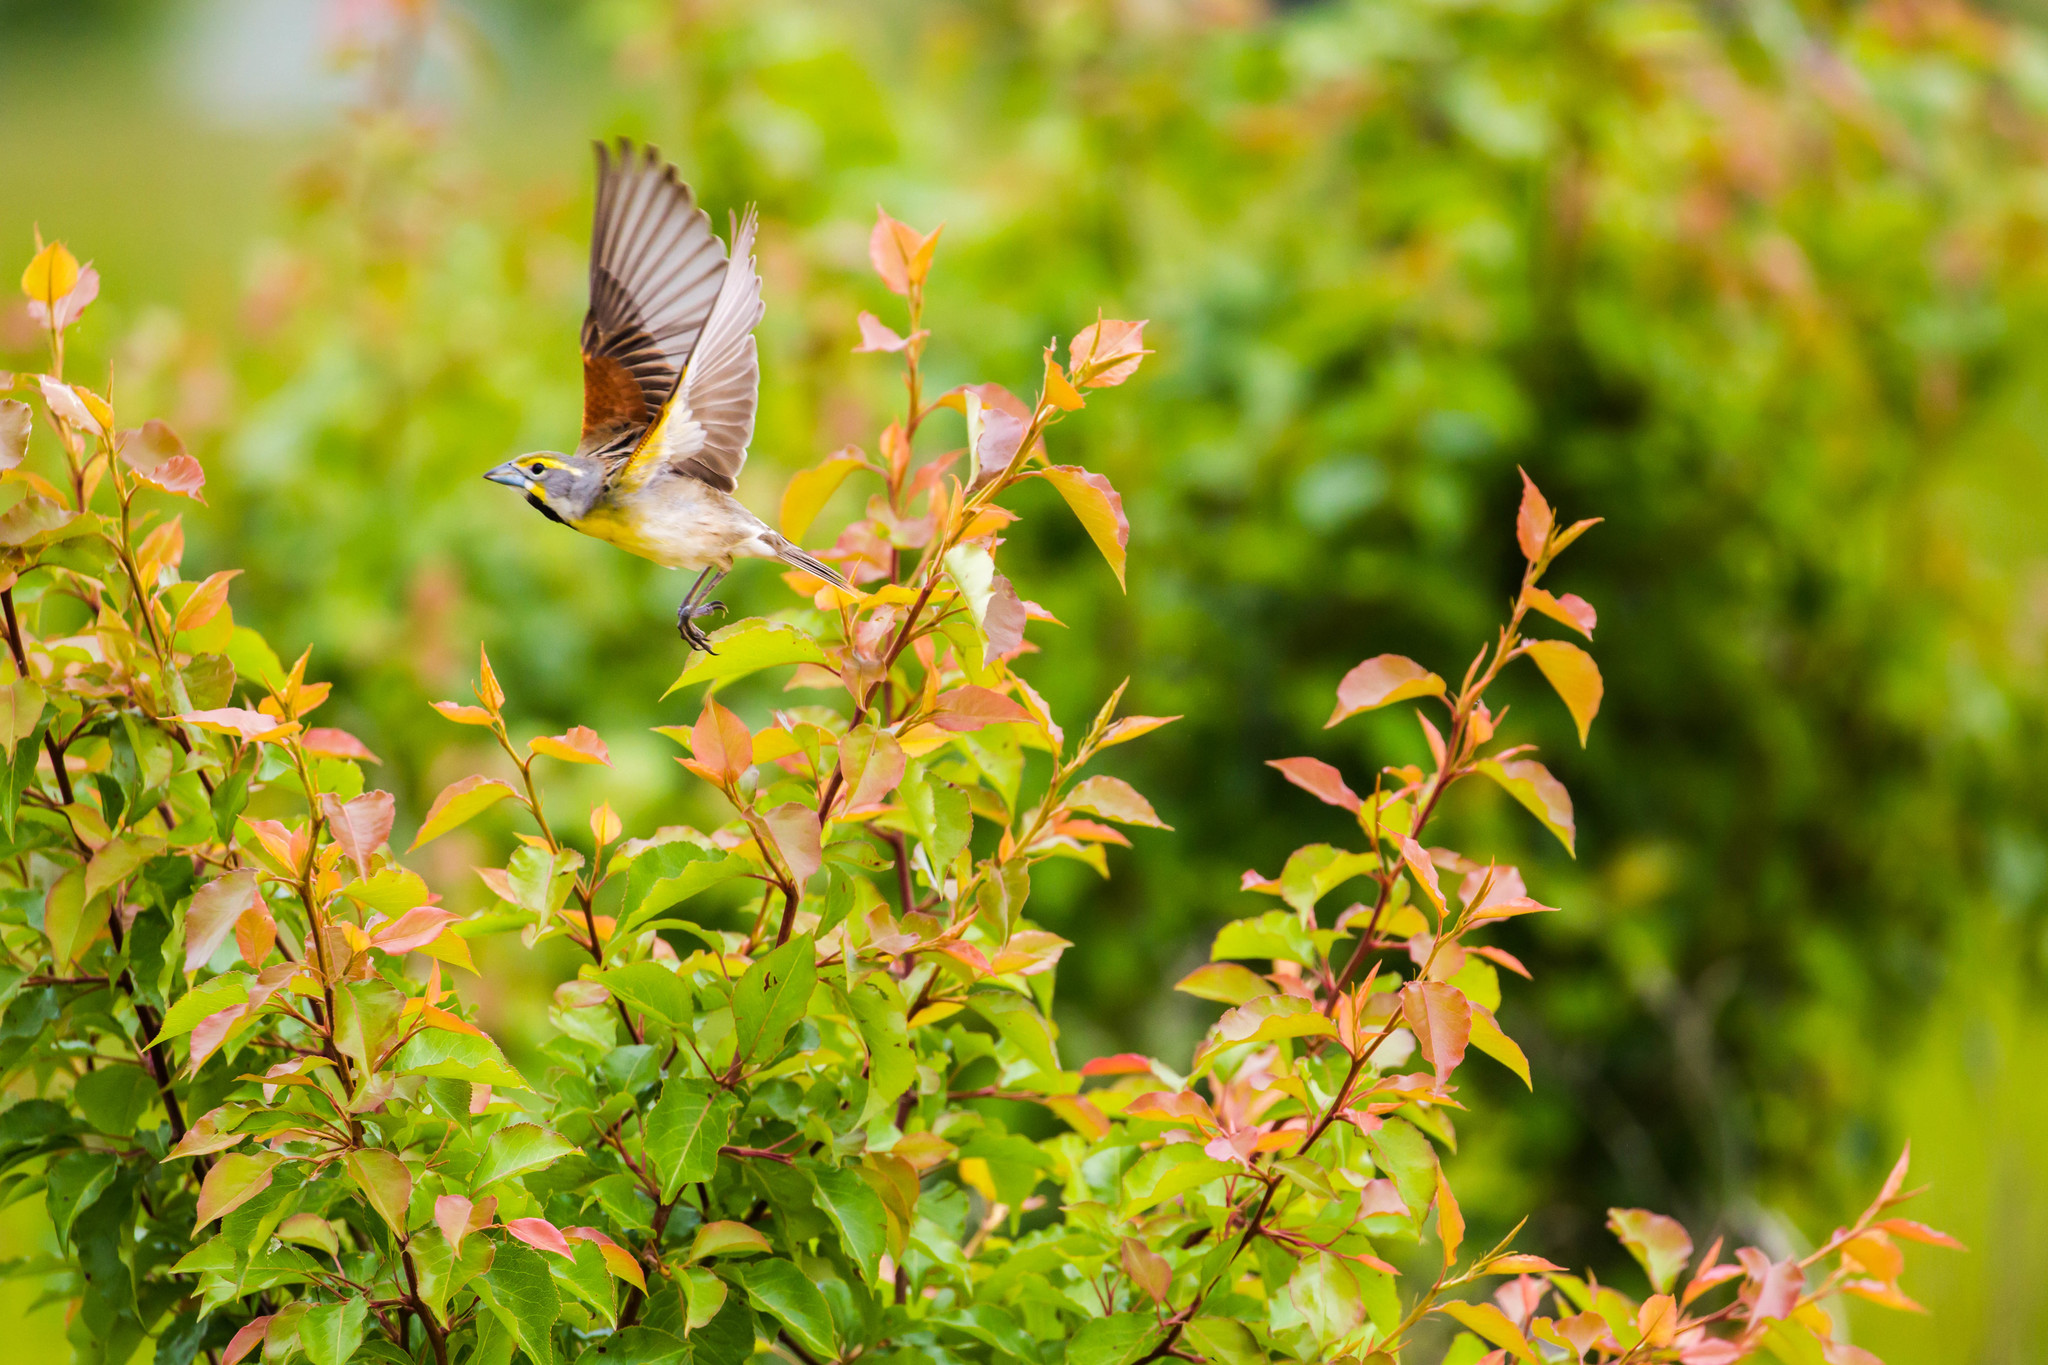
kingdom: Animalia
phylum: Chordata
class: Aves
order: Passeriformes
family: Cardinalidae
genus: Spiza
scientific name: Spiza americana
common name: Dickcissel
